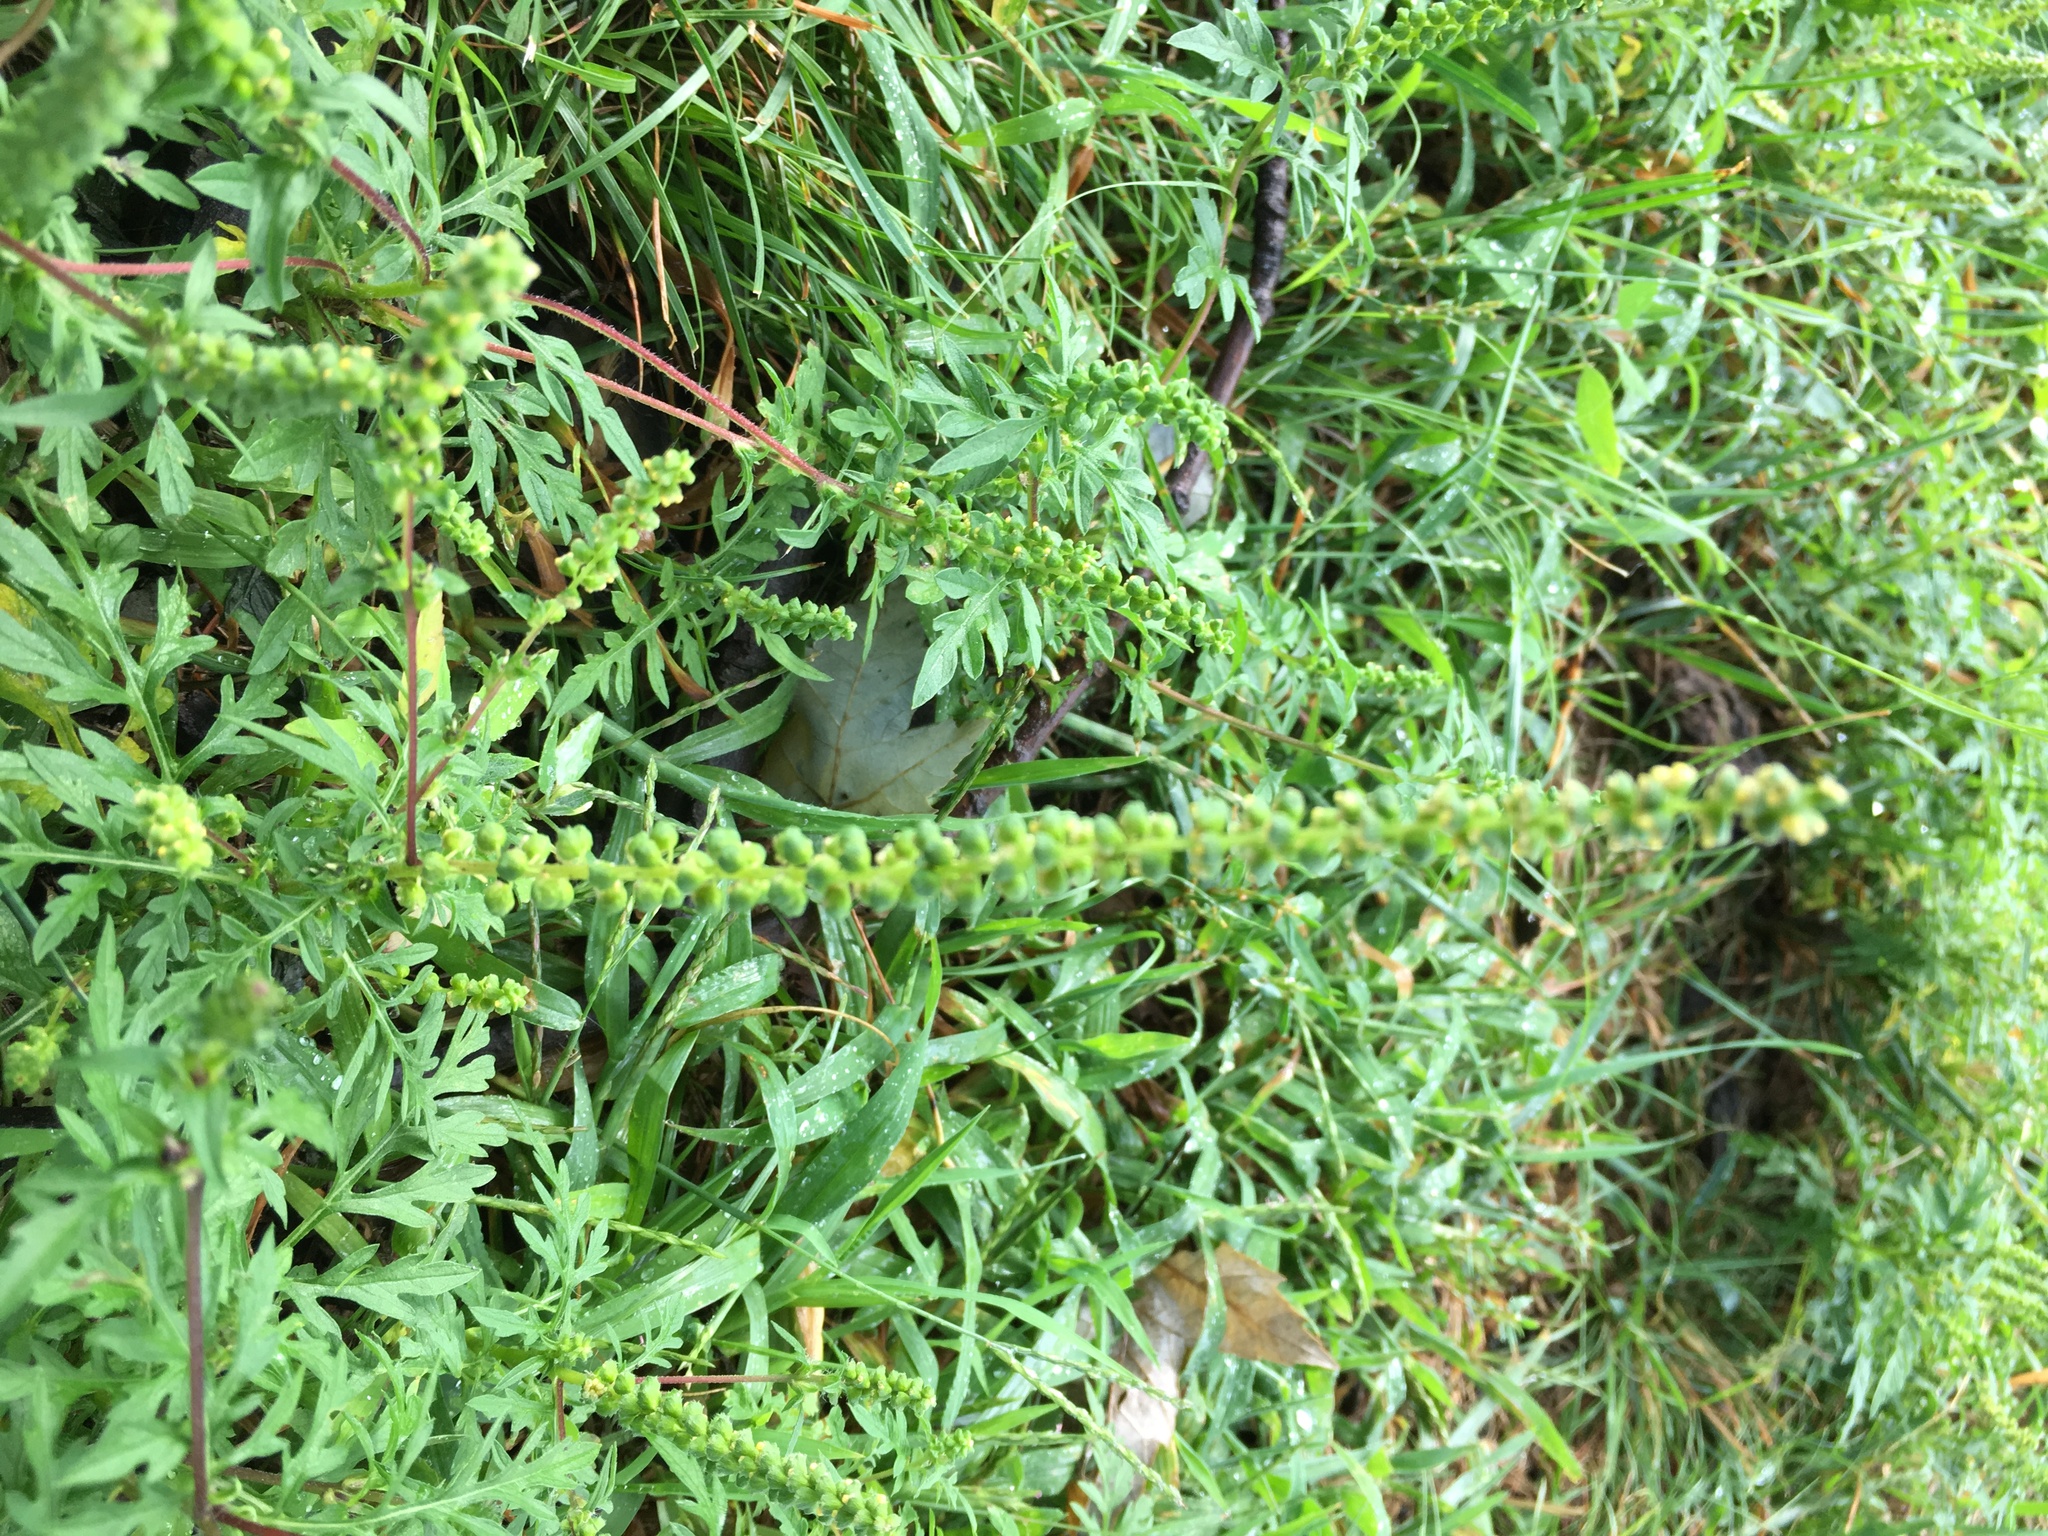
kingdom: Plantae
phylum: Tracheophyta
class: Magnoliopsida
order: Asterales
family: Asteraceae
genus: Ambrosia
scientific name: Ambrosia artemisiifolia
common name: Annual ragweed
